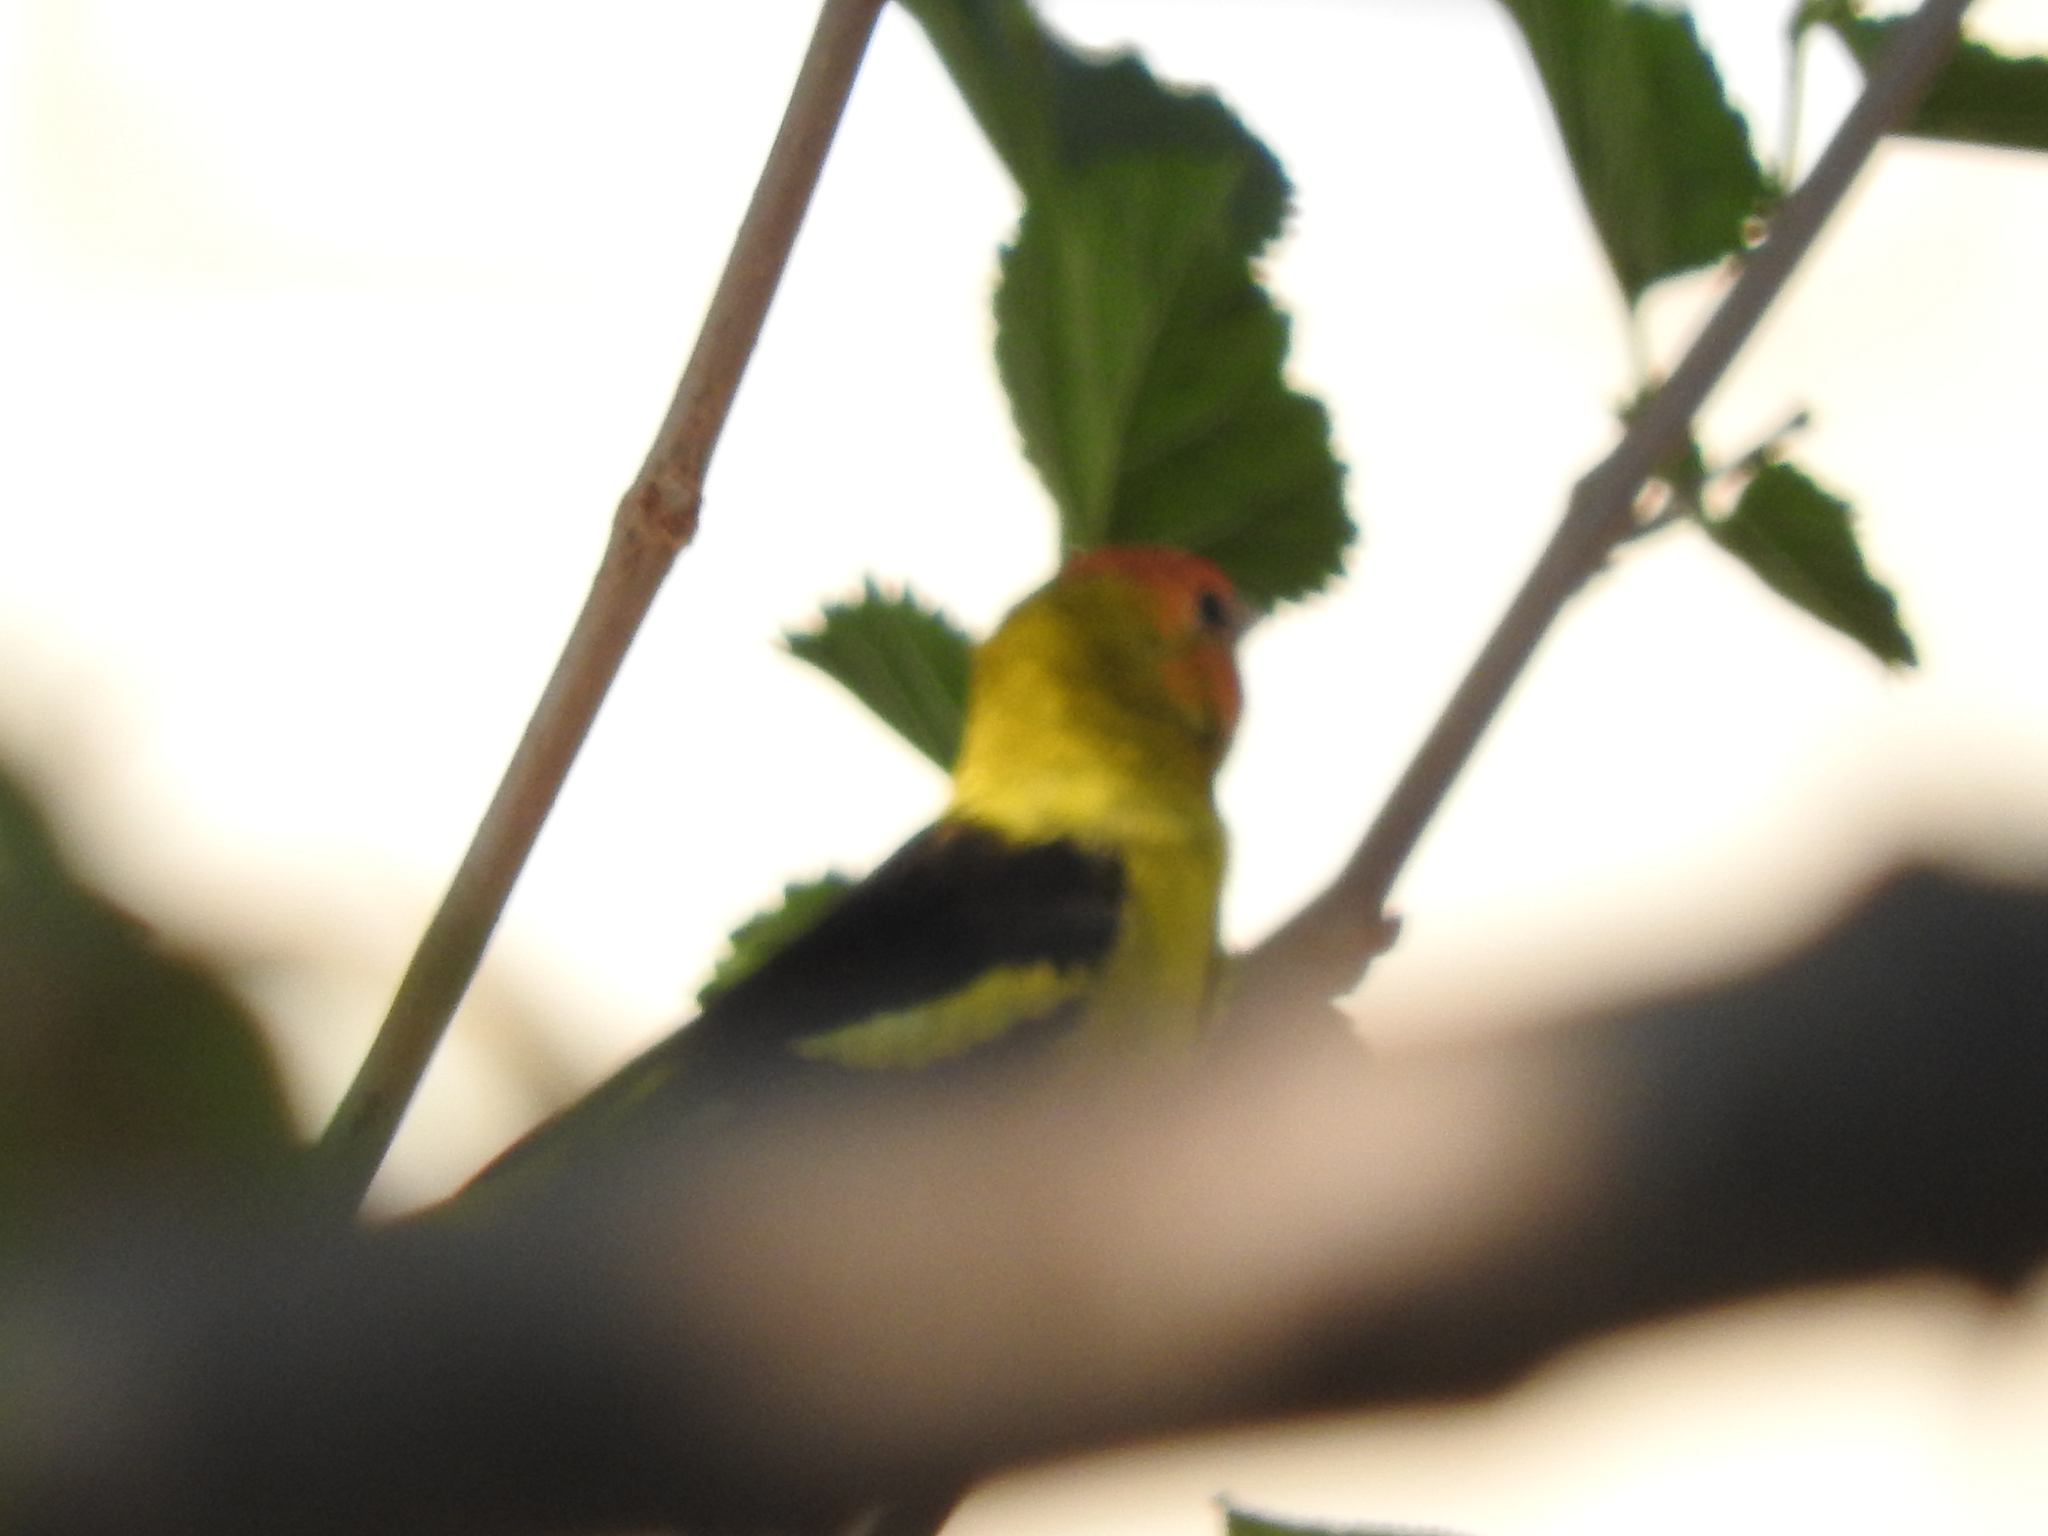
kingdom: Animalia
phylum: Chordata
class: Aves
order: Passeriformes
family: Cardinalidae
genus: Piranga
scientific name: Piranga ludoviciana
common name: Western tanager
